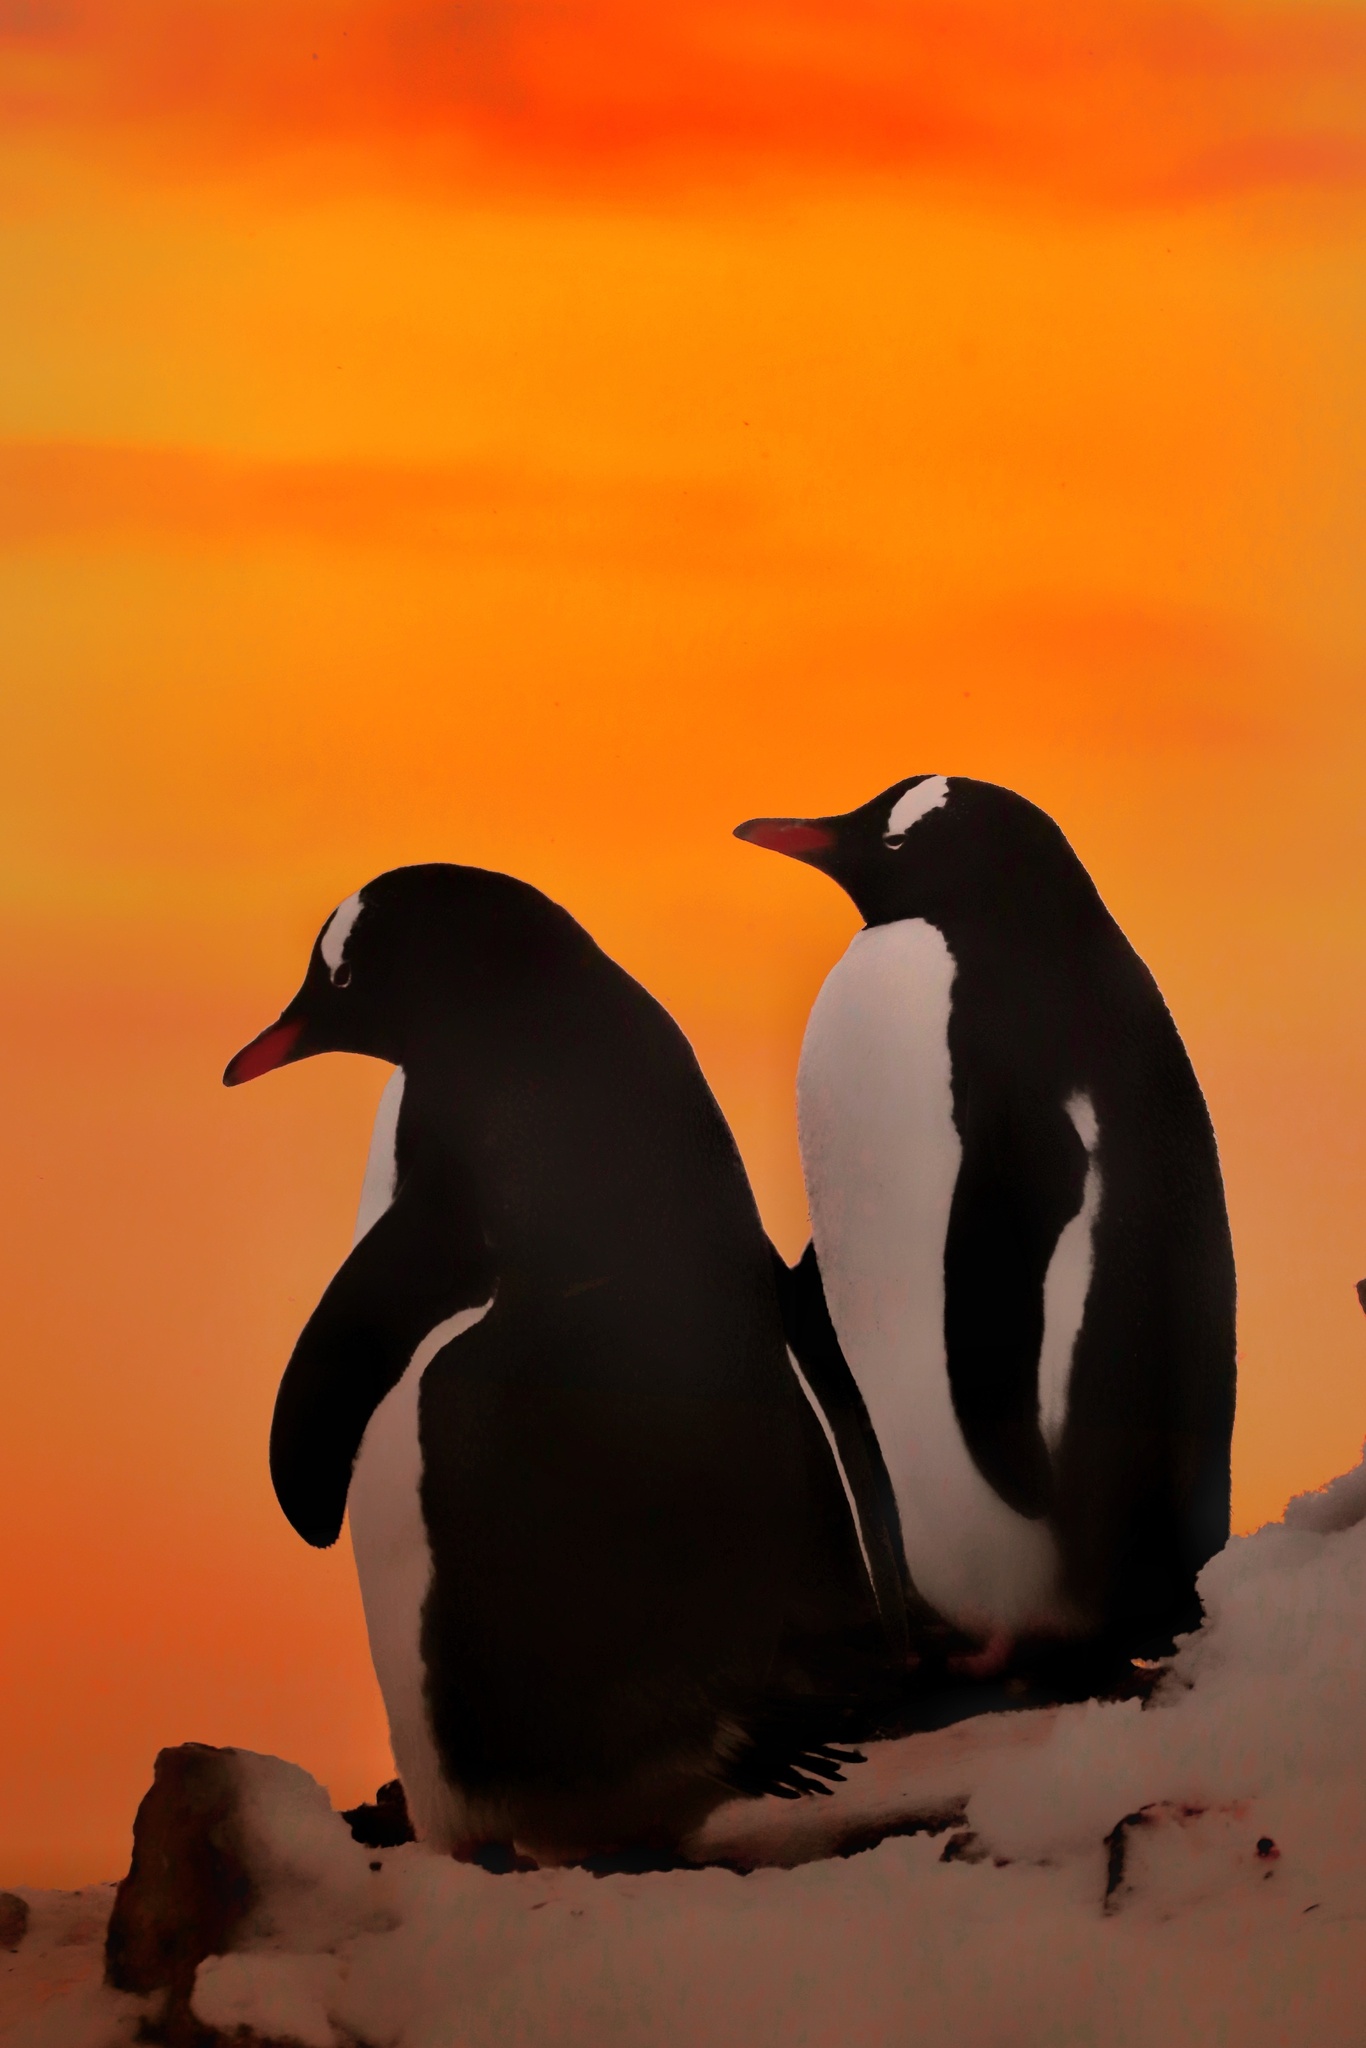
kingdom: Animalia
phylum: Chordata
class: Aves
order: Sphenisciformes
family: Spheniscidae
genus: Pygoscelis
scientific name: Pygoscelis papua
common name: Gentoo penguin
